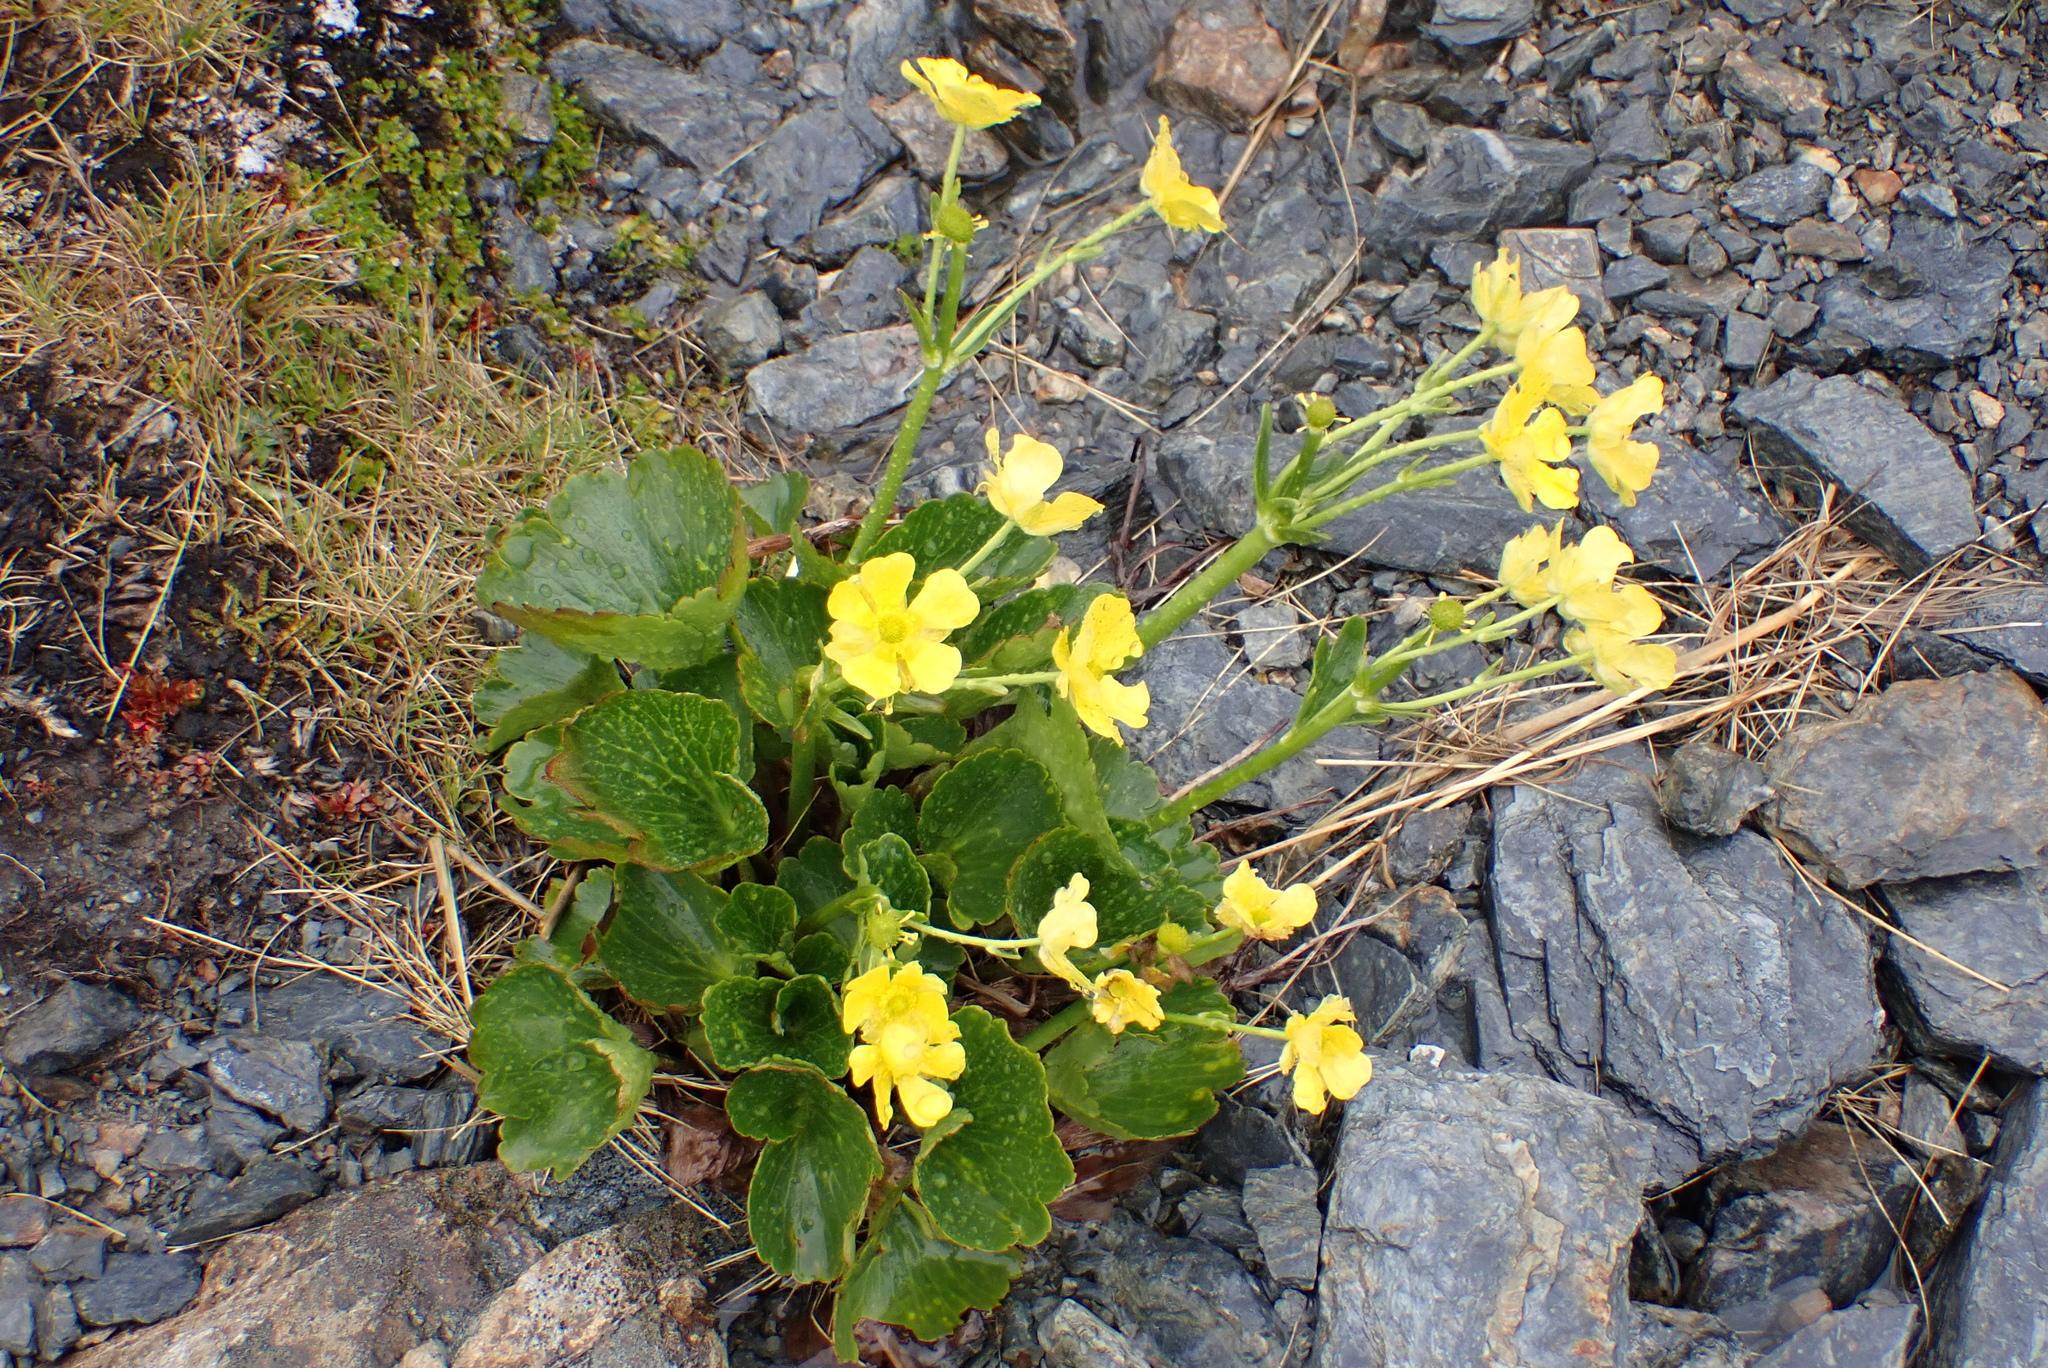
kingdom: Plantae
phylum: Tracheophyta
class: Magnoliopsida
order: Ranunculales
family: Ranunculaceae
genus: Ranunculus
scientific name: Ranunculus insignis
